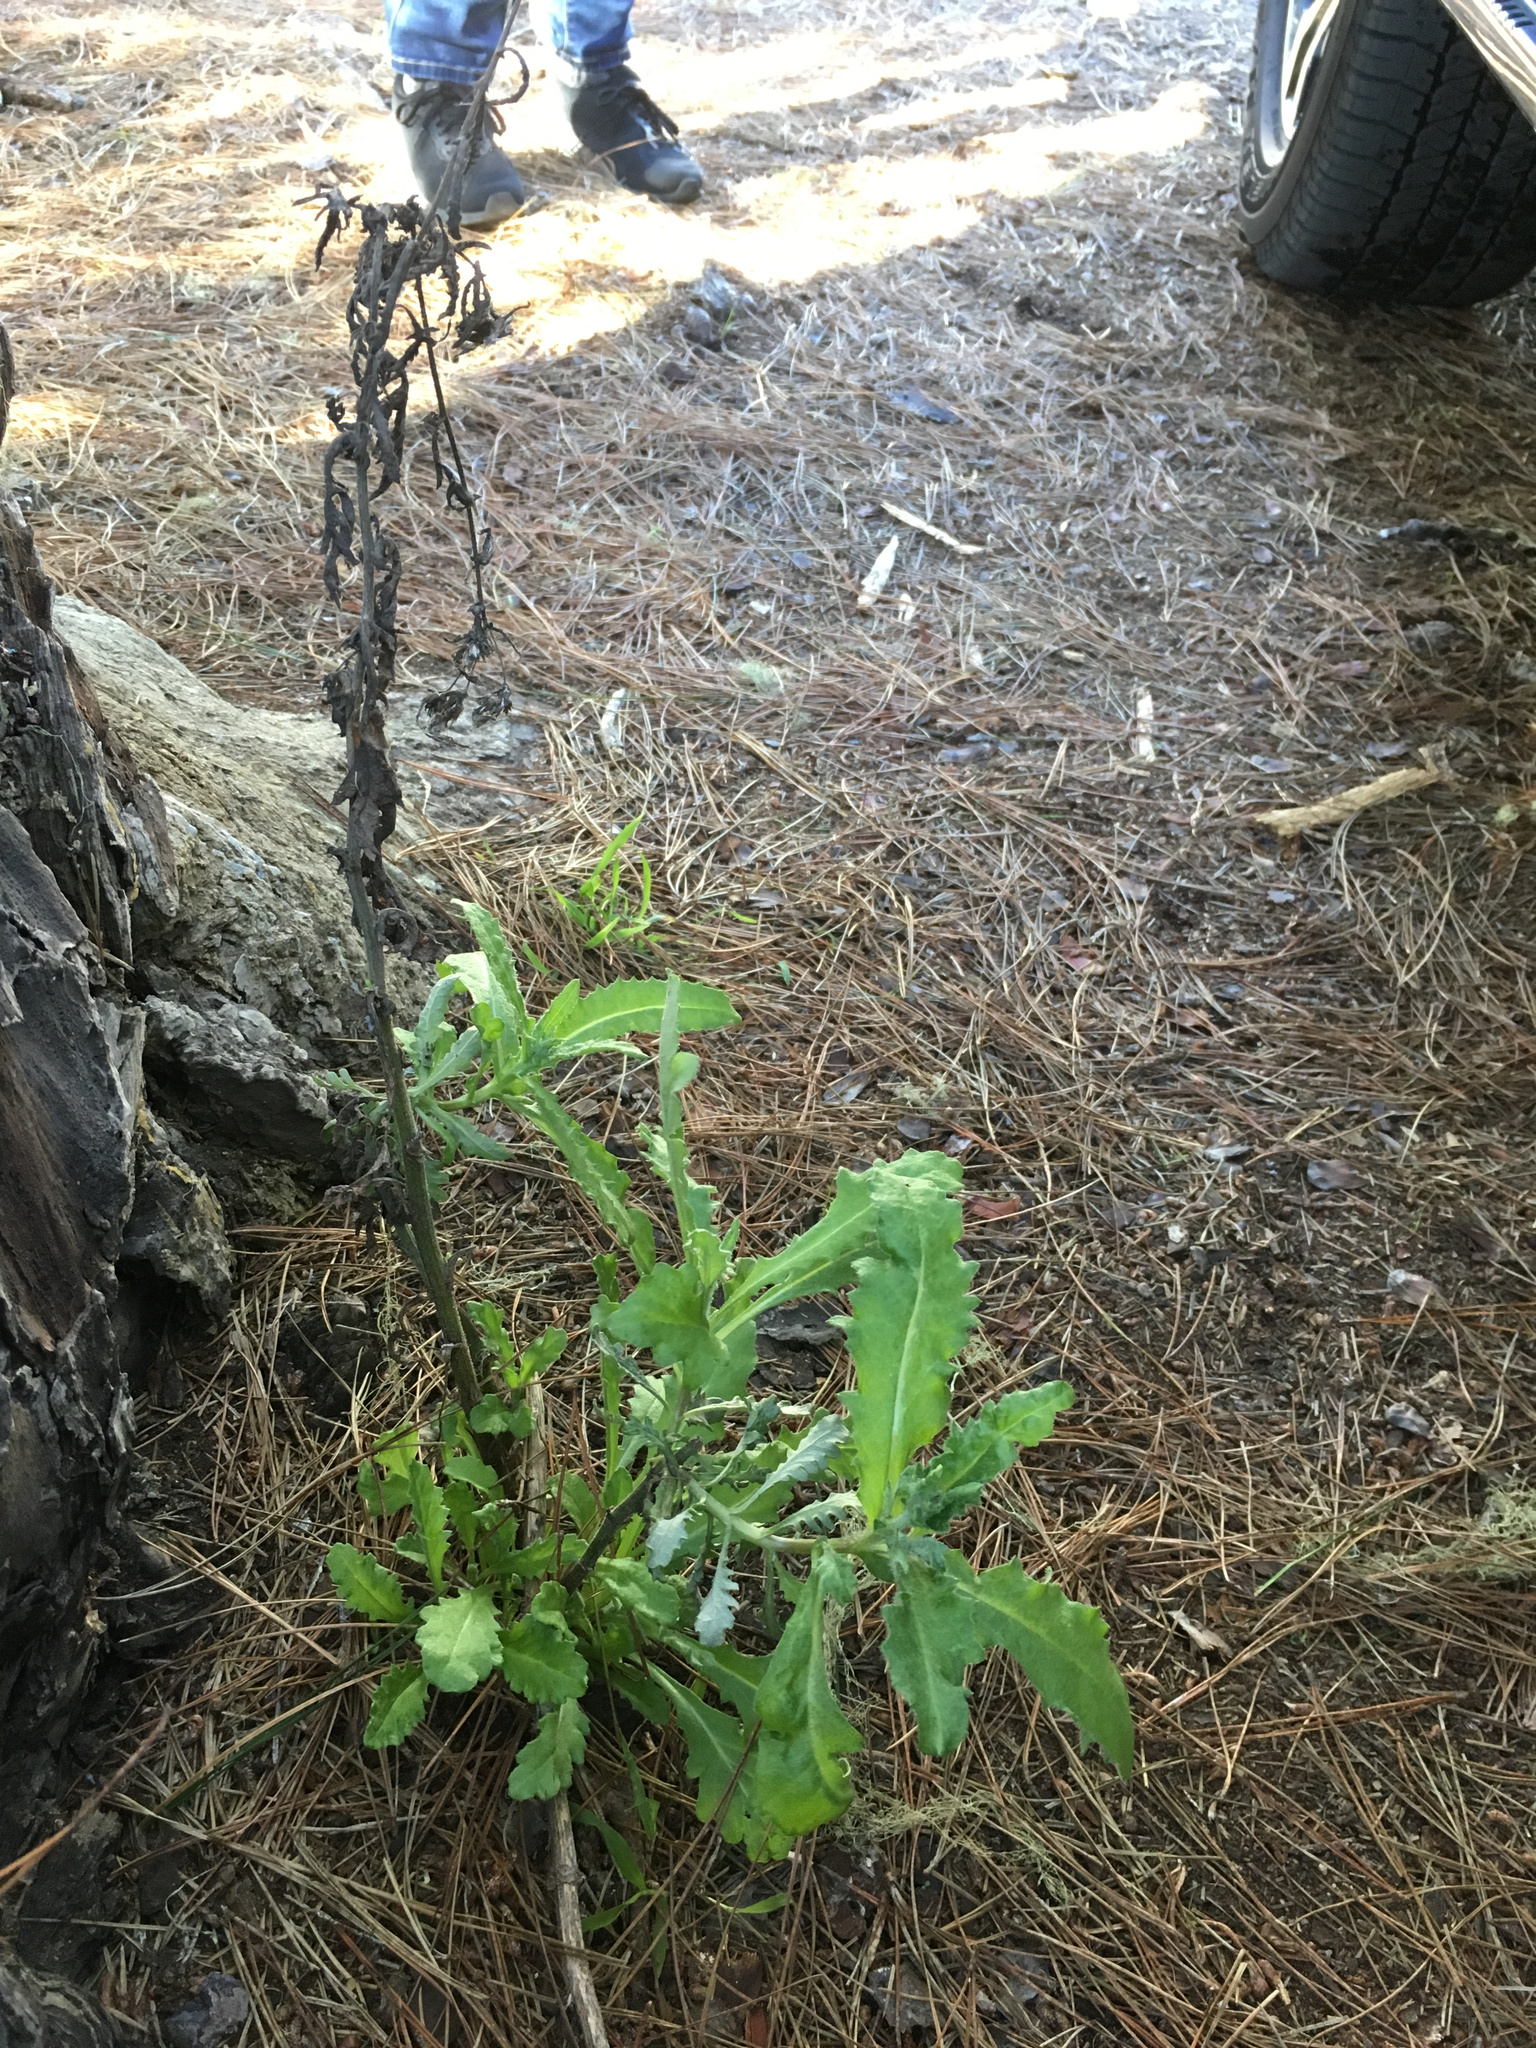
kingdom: Plantae
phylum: Tracheophyta
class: Magnoliopsida
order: Asterales
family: Asteraceae
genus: Senecio
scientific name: Senecio glomeratus
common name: Cutleaf burnweed
